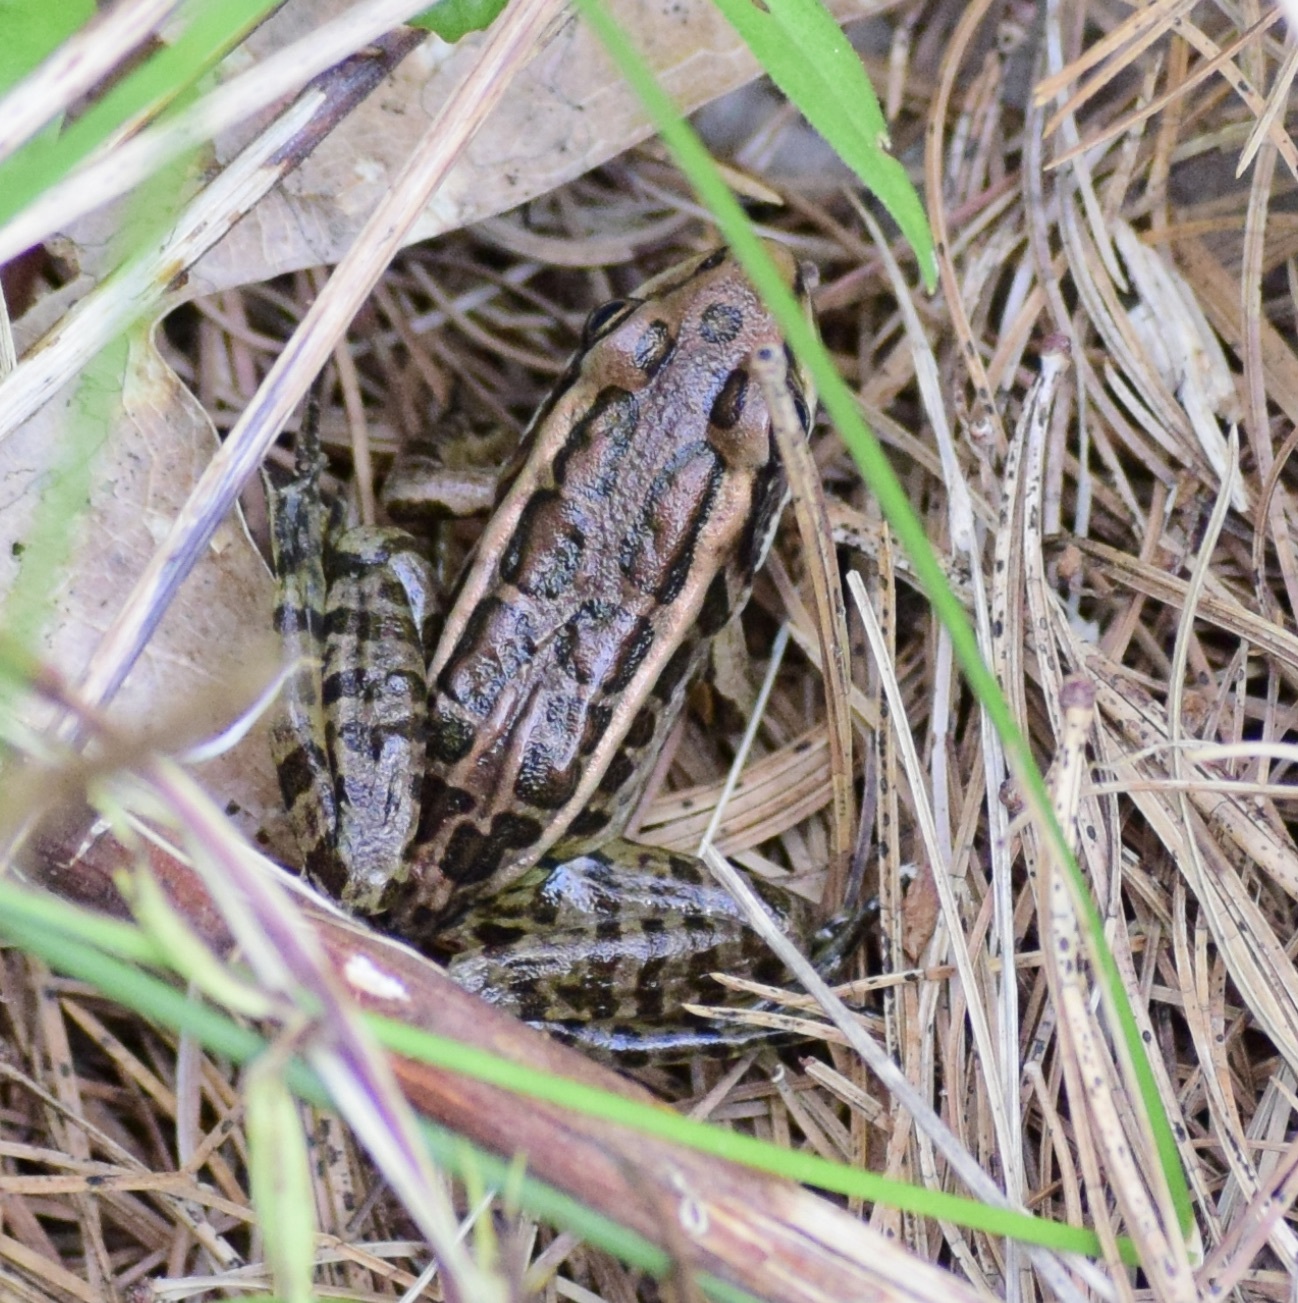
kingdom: Animalia
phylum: Chordata
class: Amphibia
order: Anura
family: Ranidae
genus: Lithobates
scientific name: Lithobates palustris
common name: Pickerel frog
